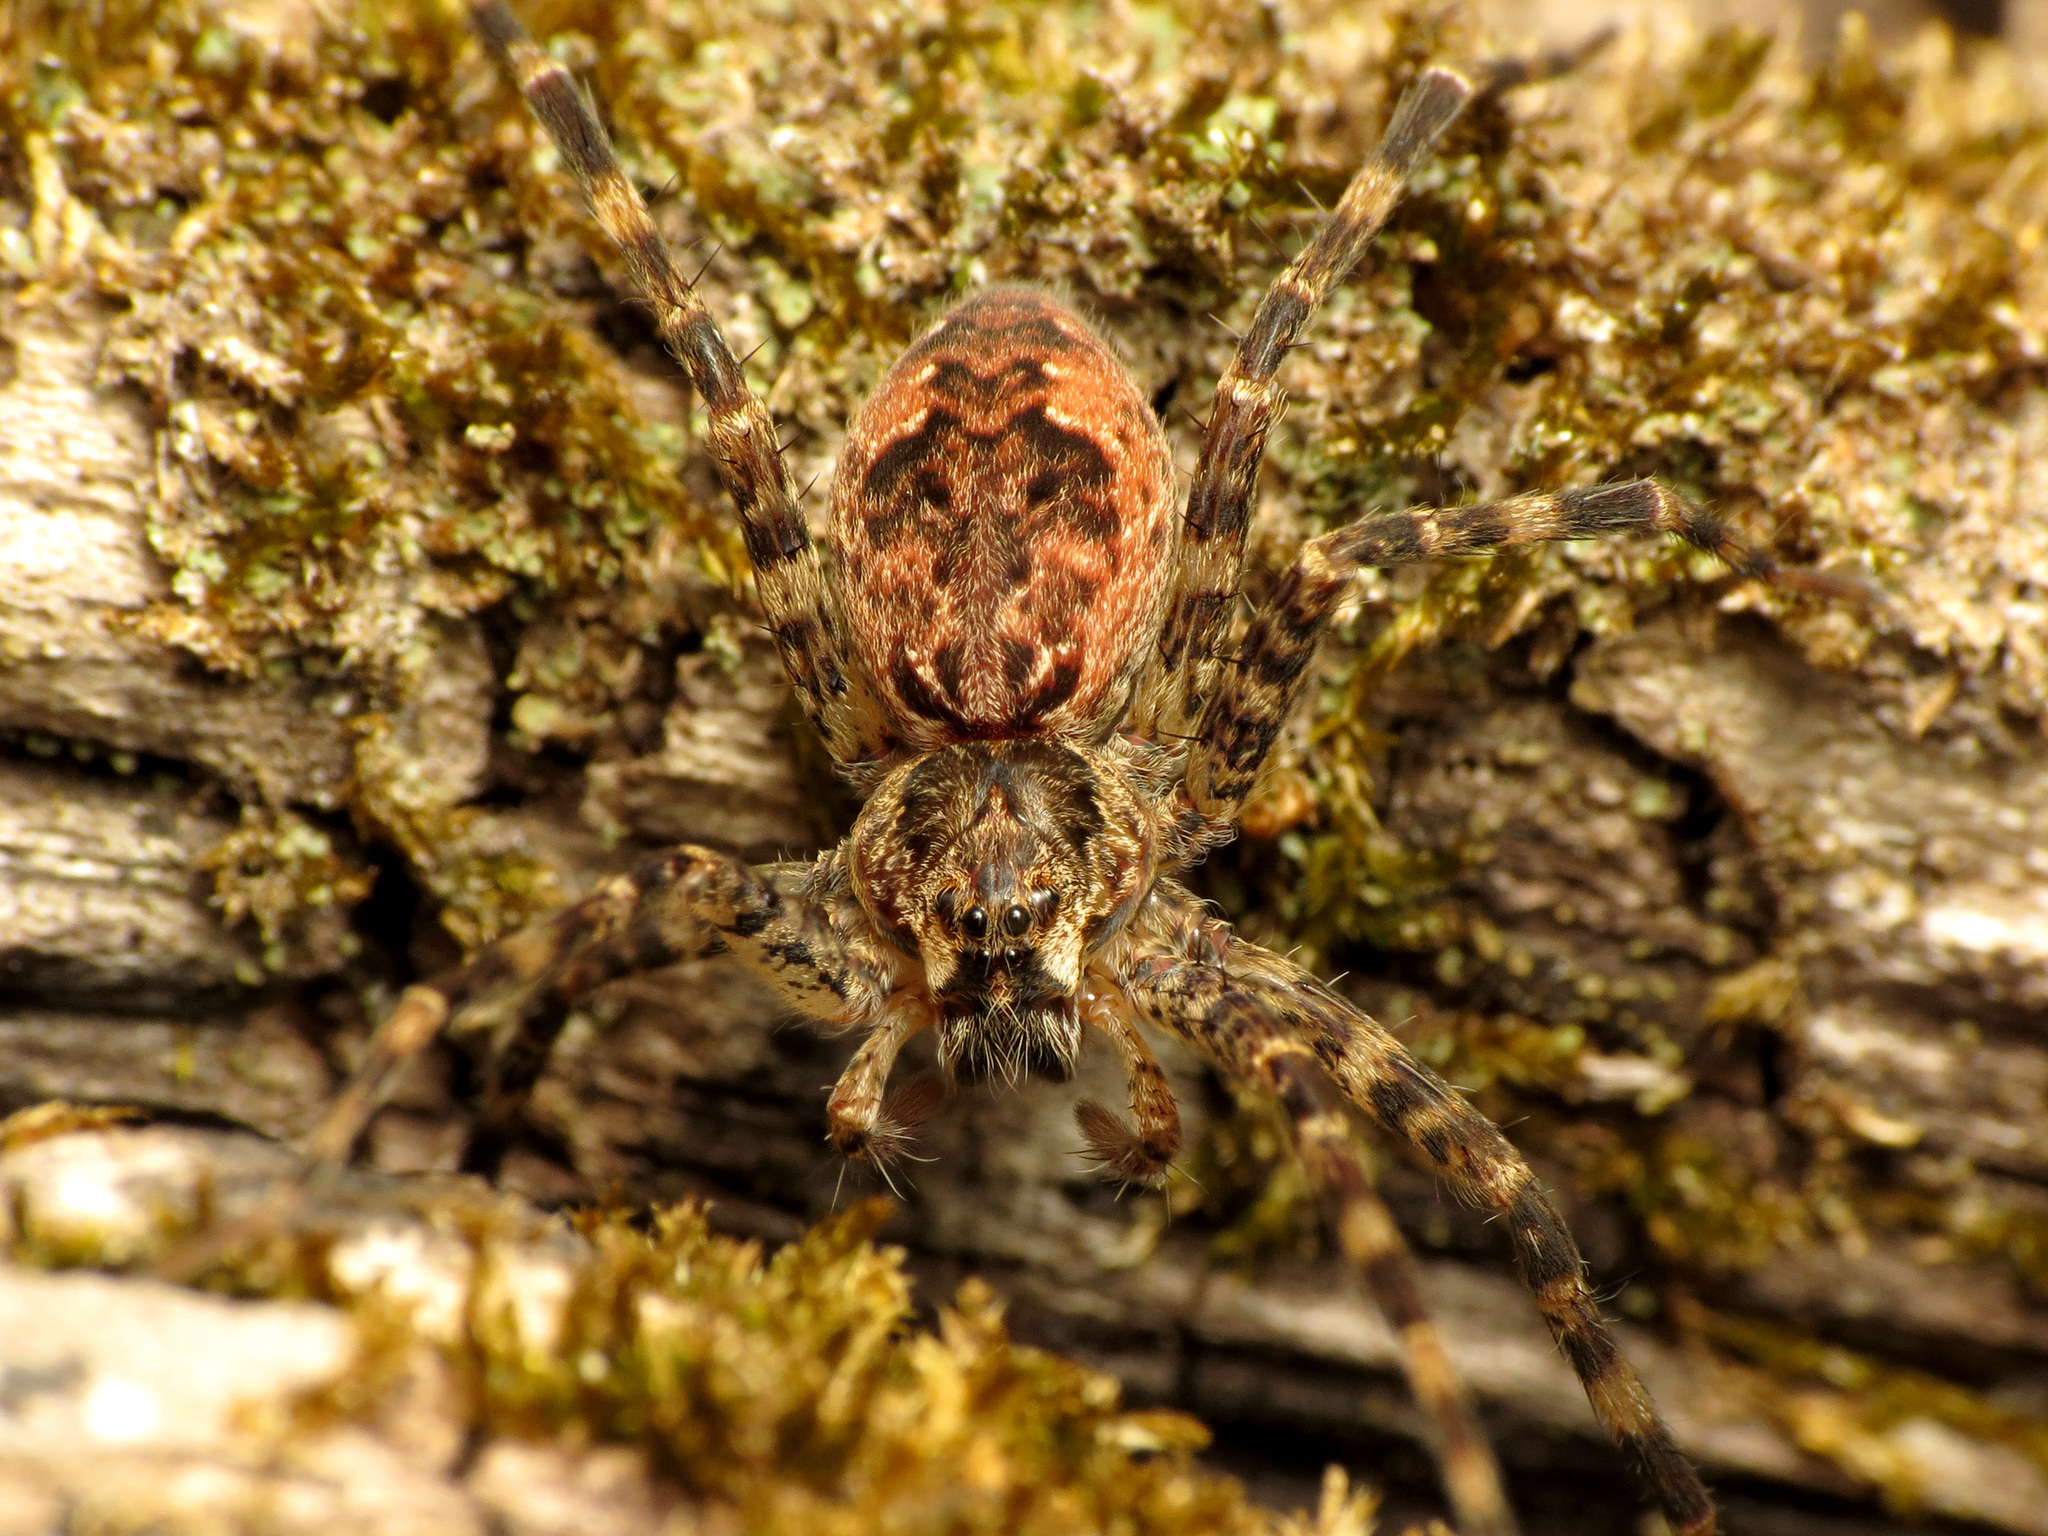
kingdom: Animalia
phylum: Arthropoda
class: Arachnida
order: Araneae
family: Pisauridae
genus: Dolomedes
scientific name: Dolomedes tenebrosus
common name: Dark fishing spider
